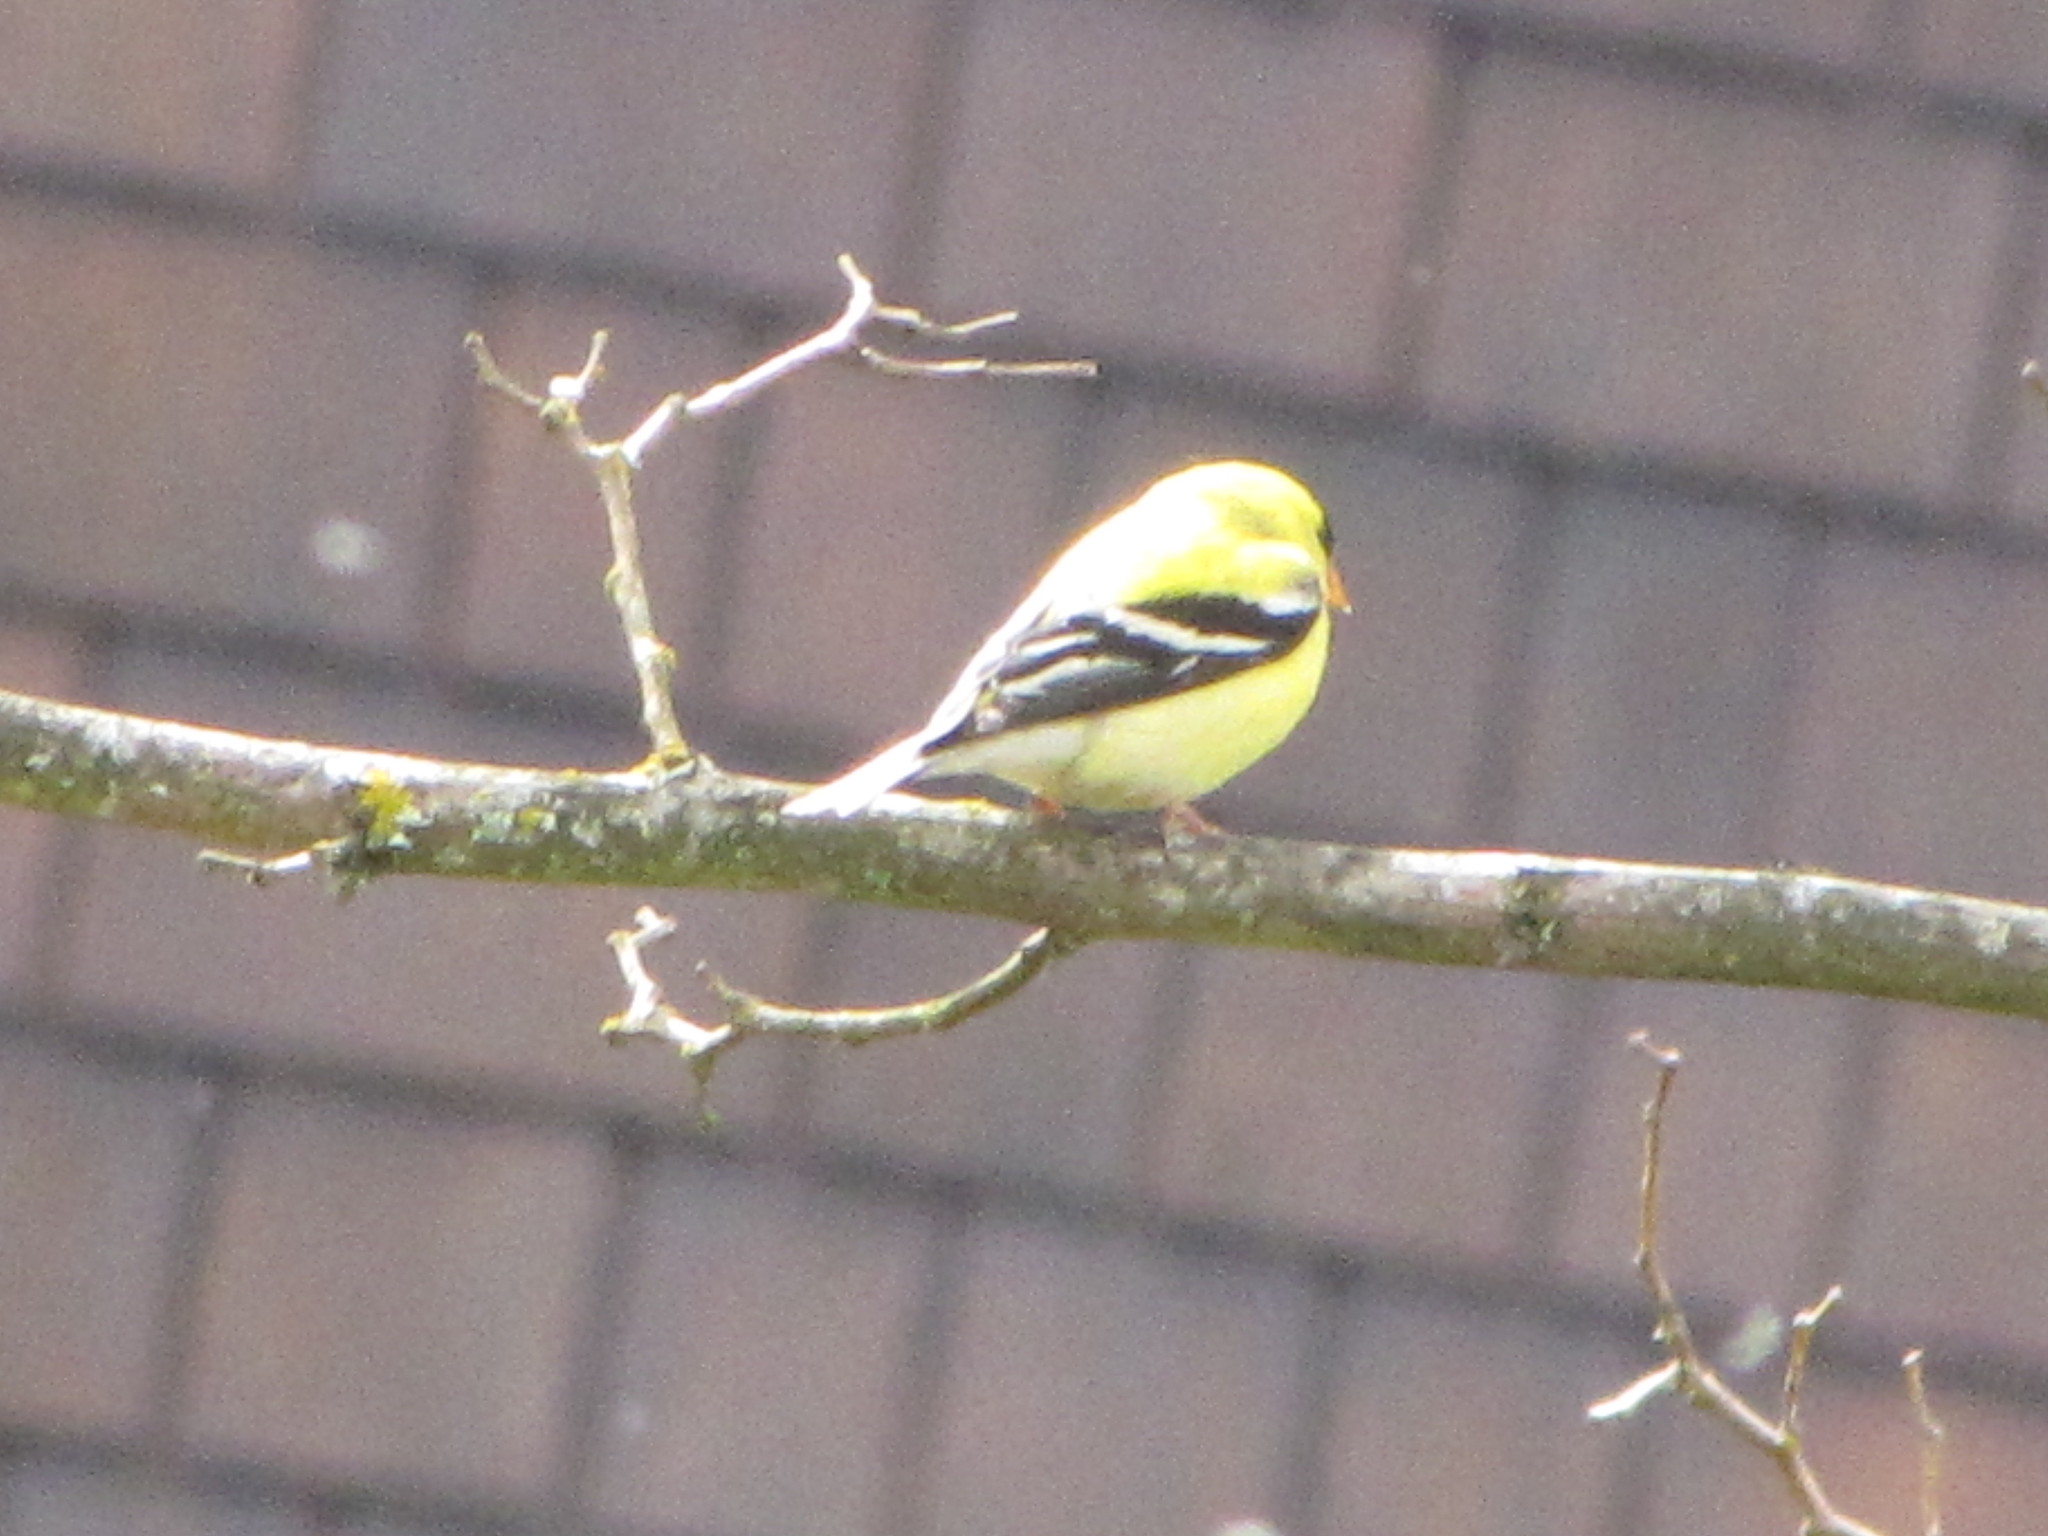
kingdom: Animalia
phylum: Chordata
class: Aves
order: Passeriformes
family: Fringillidae
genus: Spinus
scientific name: Spinus tristis
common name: American goldfinch
